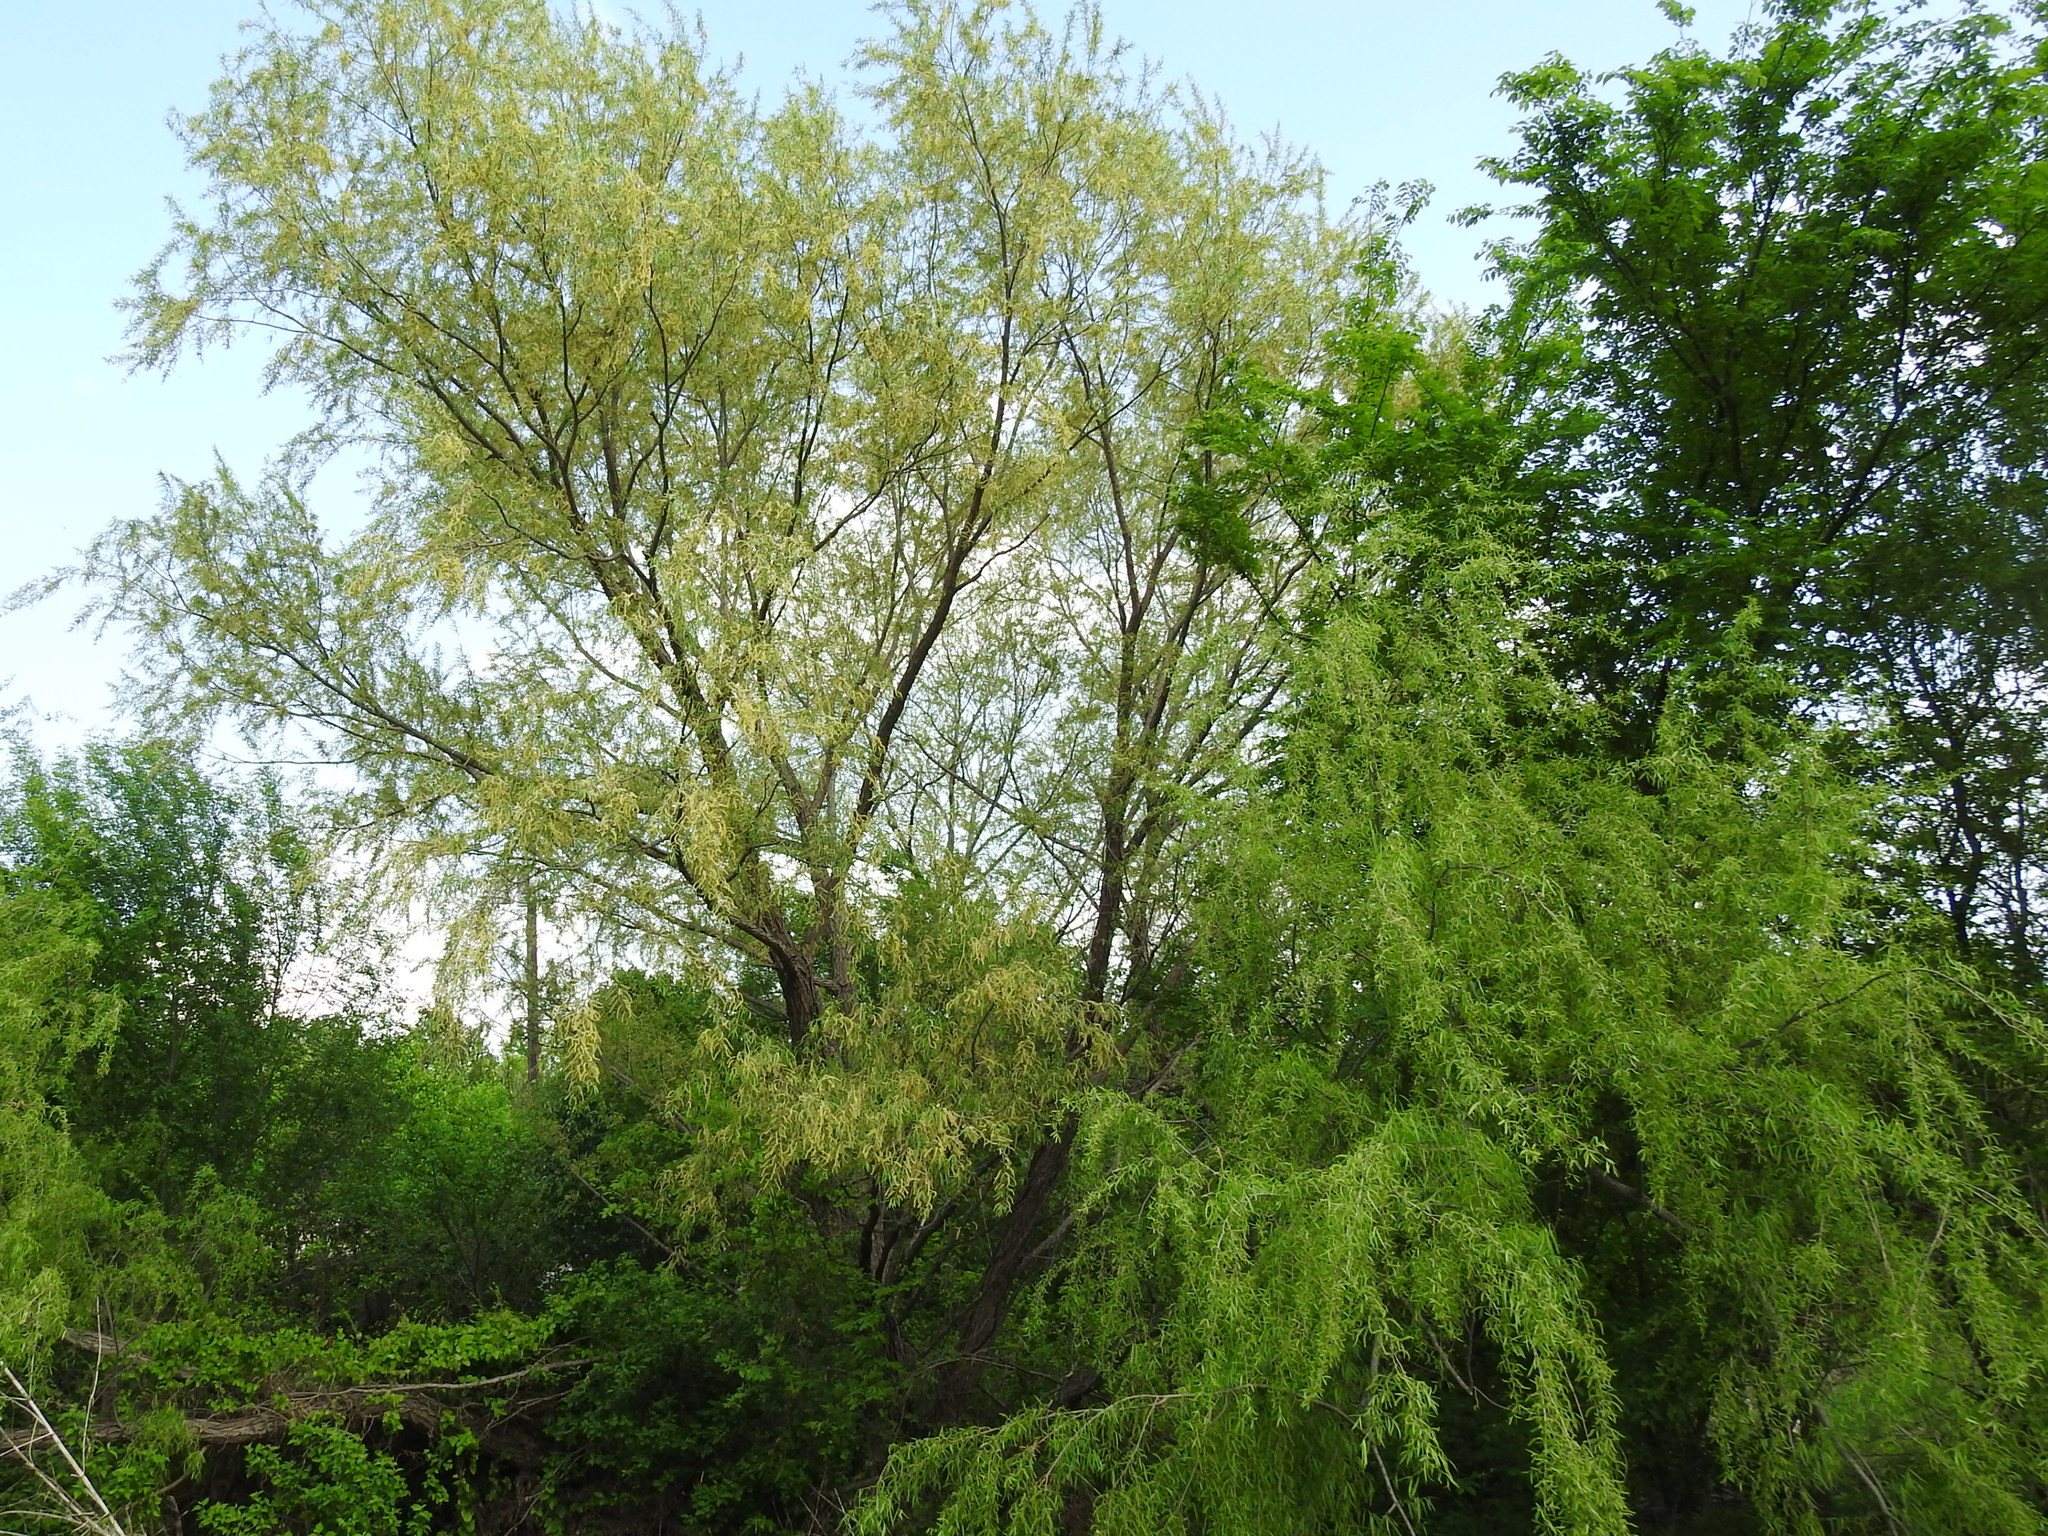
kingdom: Plantae
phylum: Tracheophyta
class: Magnoliopsida
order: Malpighiales
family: Salicaceae
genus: Salix
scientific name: Salix nigra
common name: Black willow
